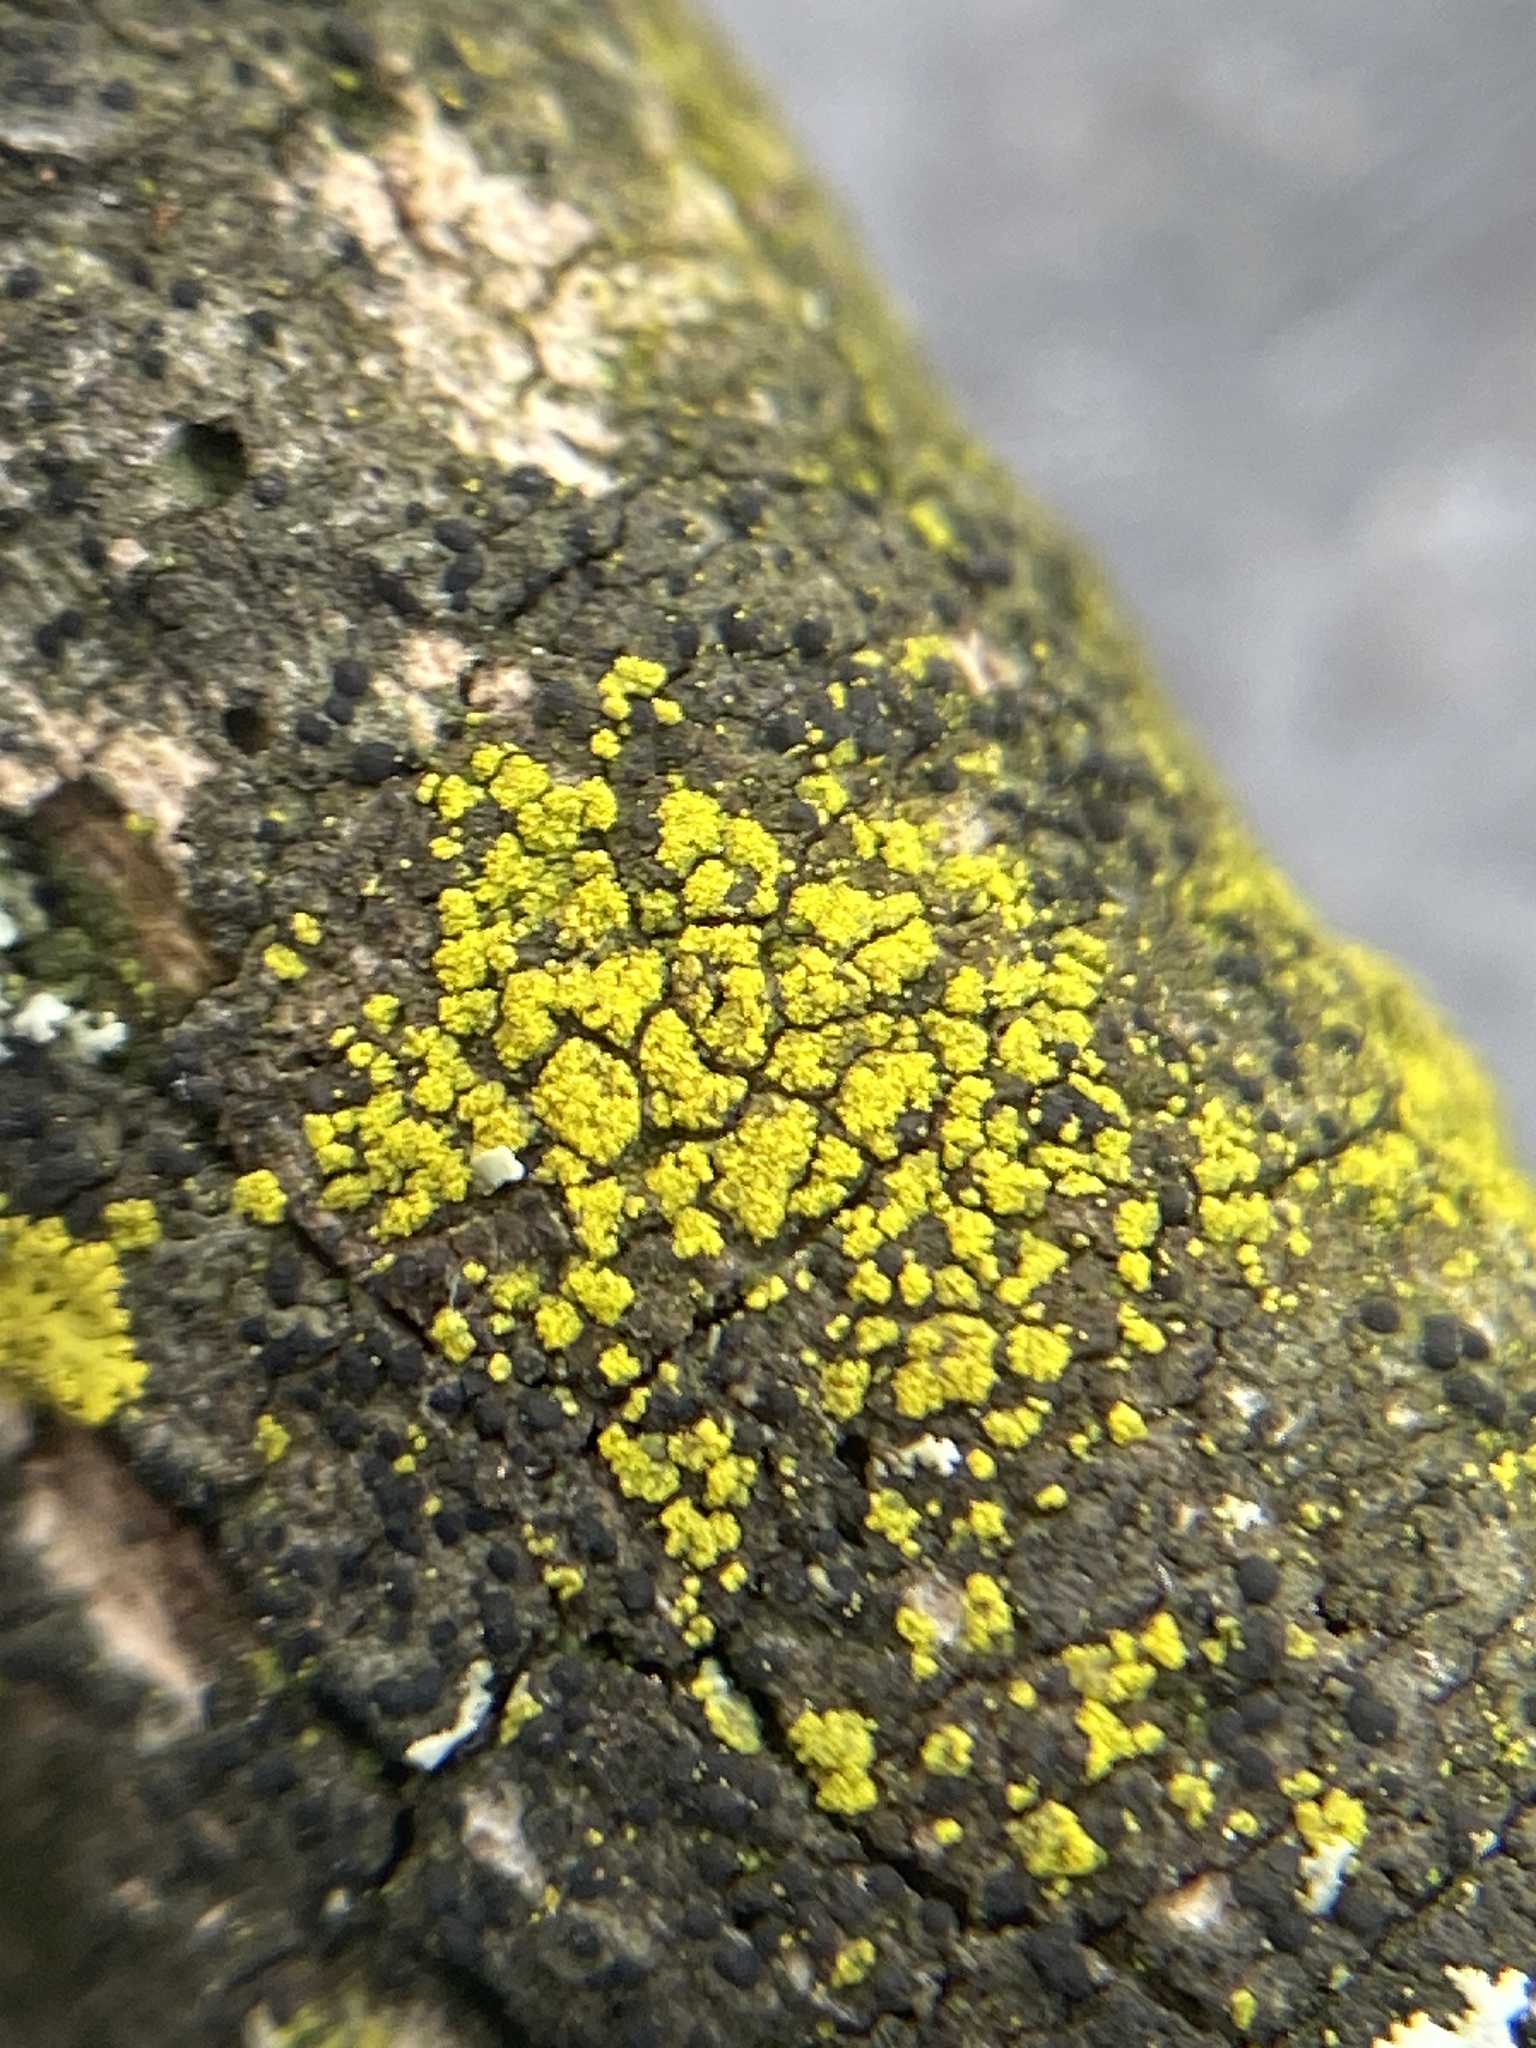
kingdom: Fungi
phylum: Ascomycota
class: Candelariomycetes
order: Candelariales
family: Candelariaceae
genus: Candelariella
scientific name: Candelariella efflorescens
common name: Powdery goldspeck
